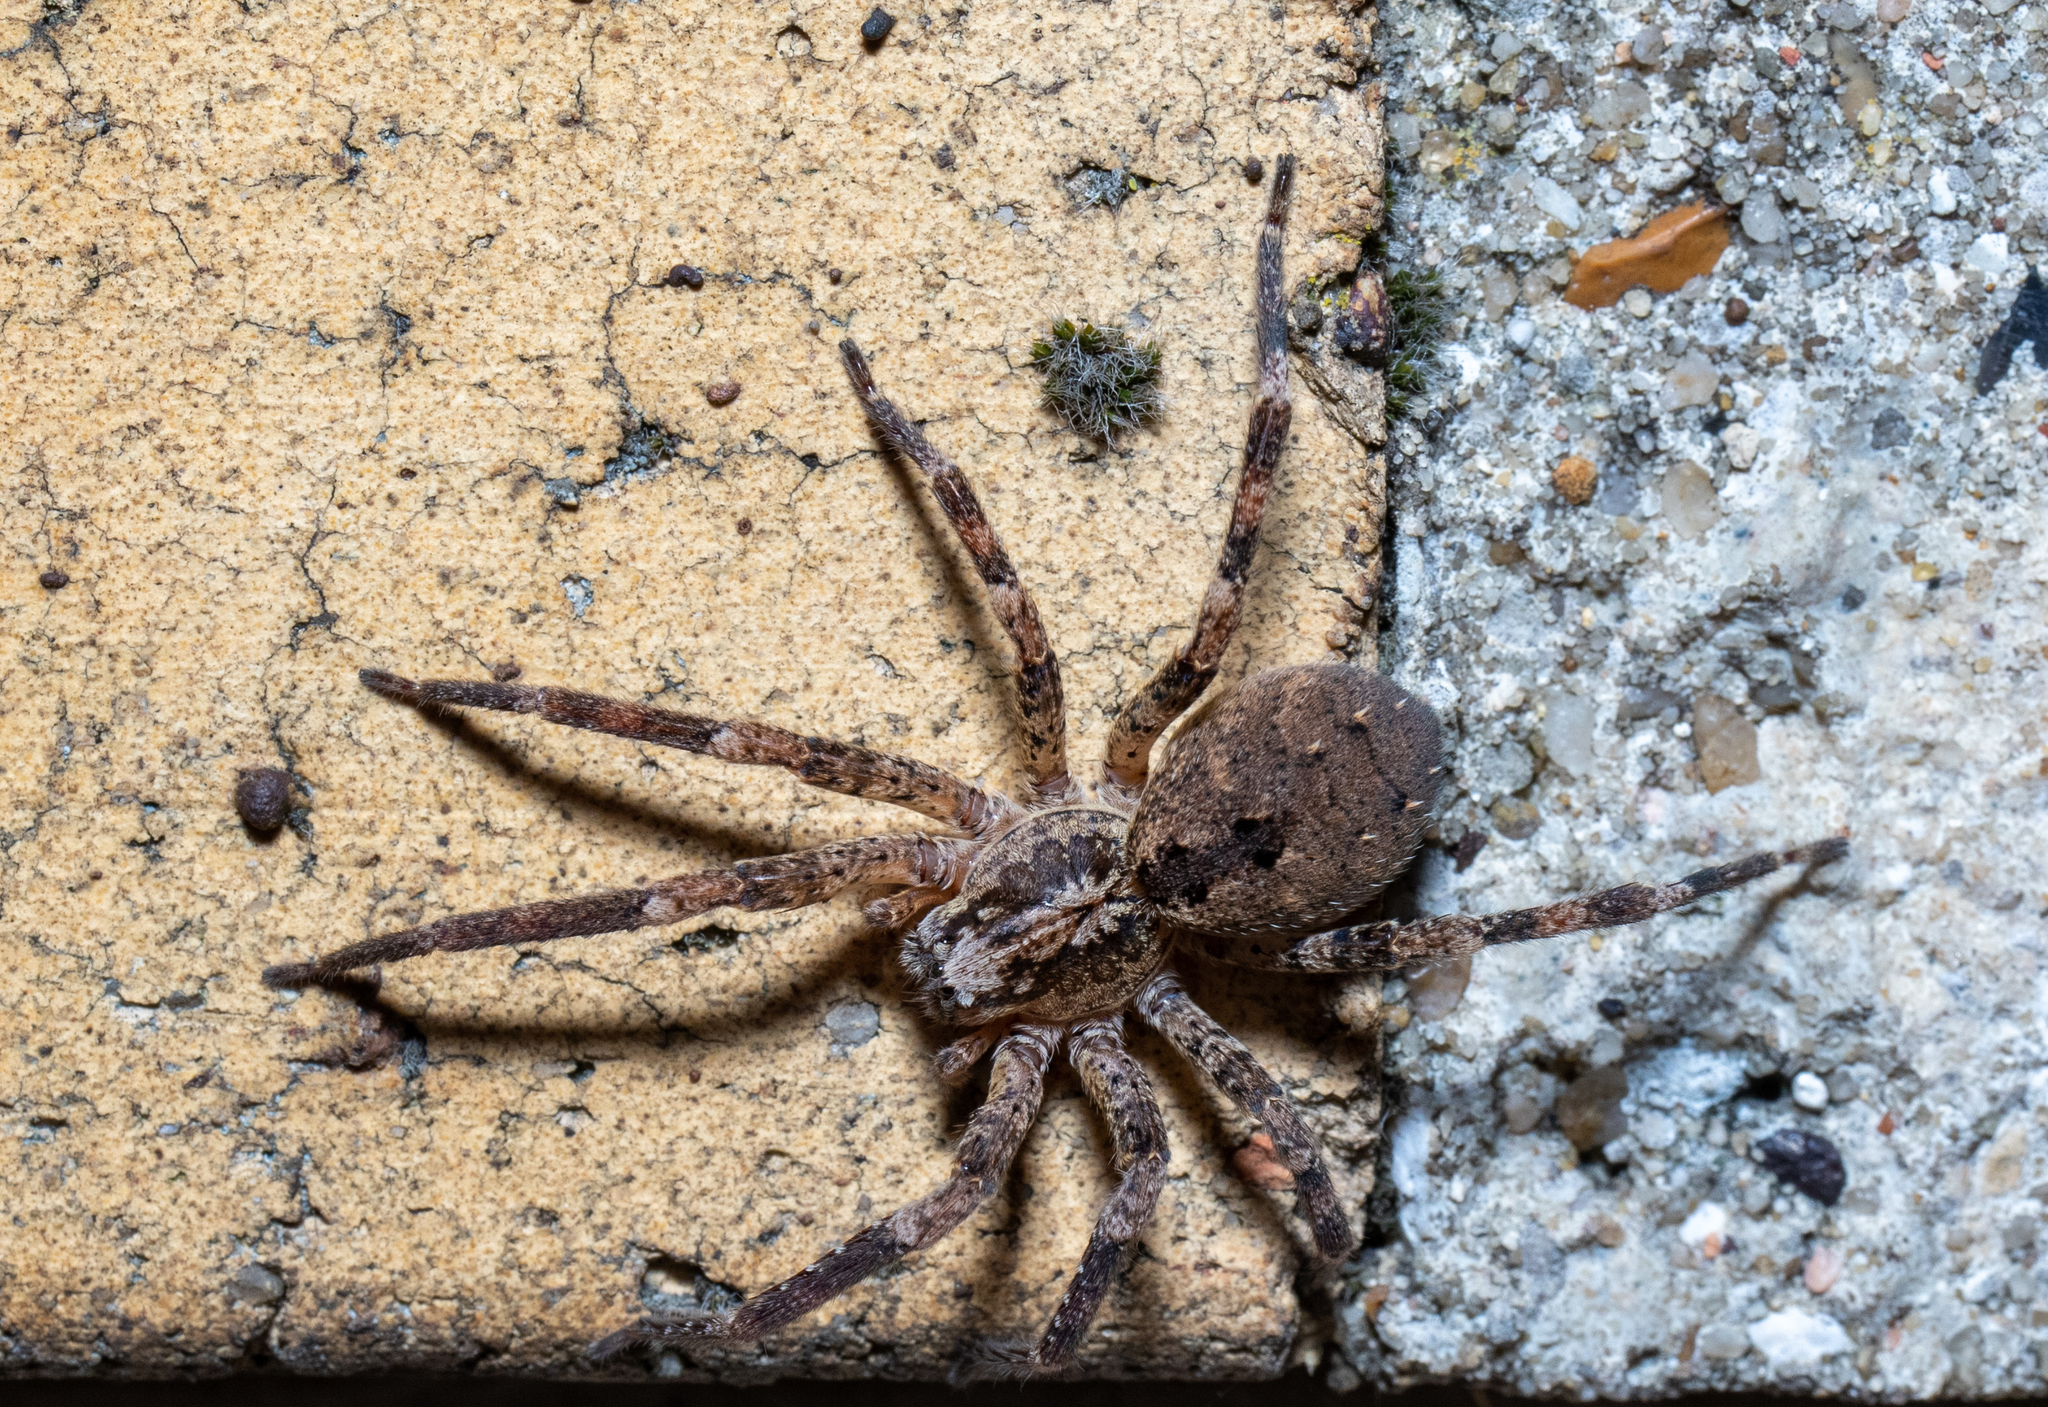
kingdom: Animalia
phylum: Arthropoda
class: Arachnida
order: Araneae
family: Zoropsidae
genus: Zoropsis
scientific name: Zoropsis spinimana
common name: Zoropsid spider
